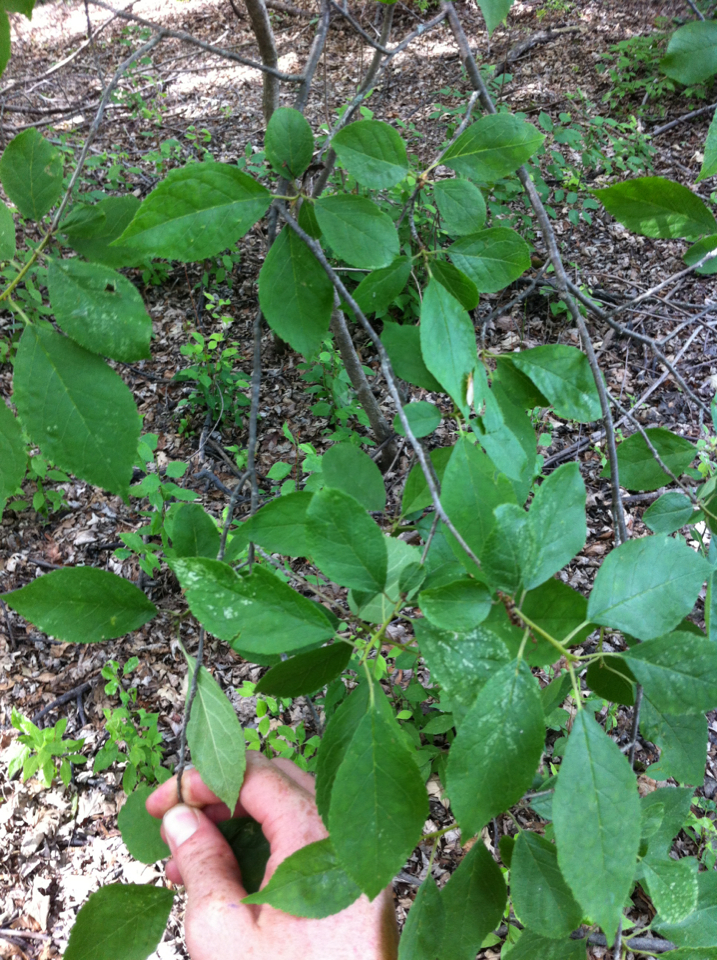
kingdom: Plantae
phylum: Tracheophyta
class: Magnoliopsida
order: Aquifoliales
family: Aquifoliaceae
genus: Ilex
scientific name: Ilex verticillata
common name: Virginia winterberry
